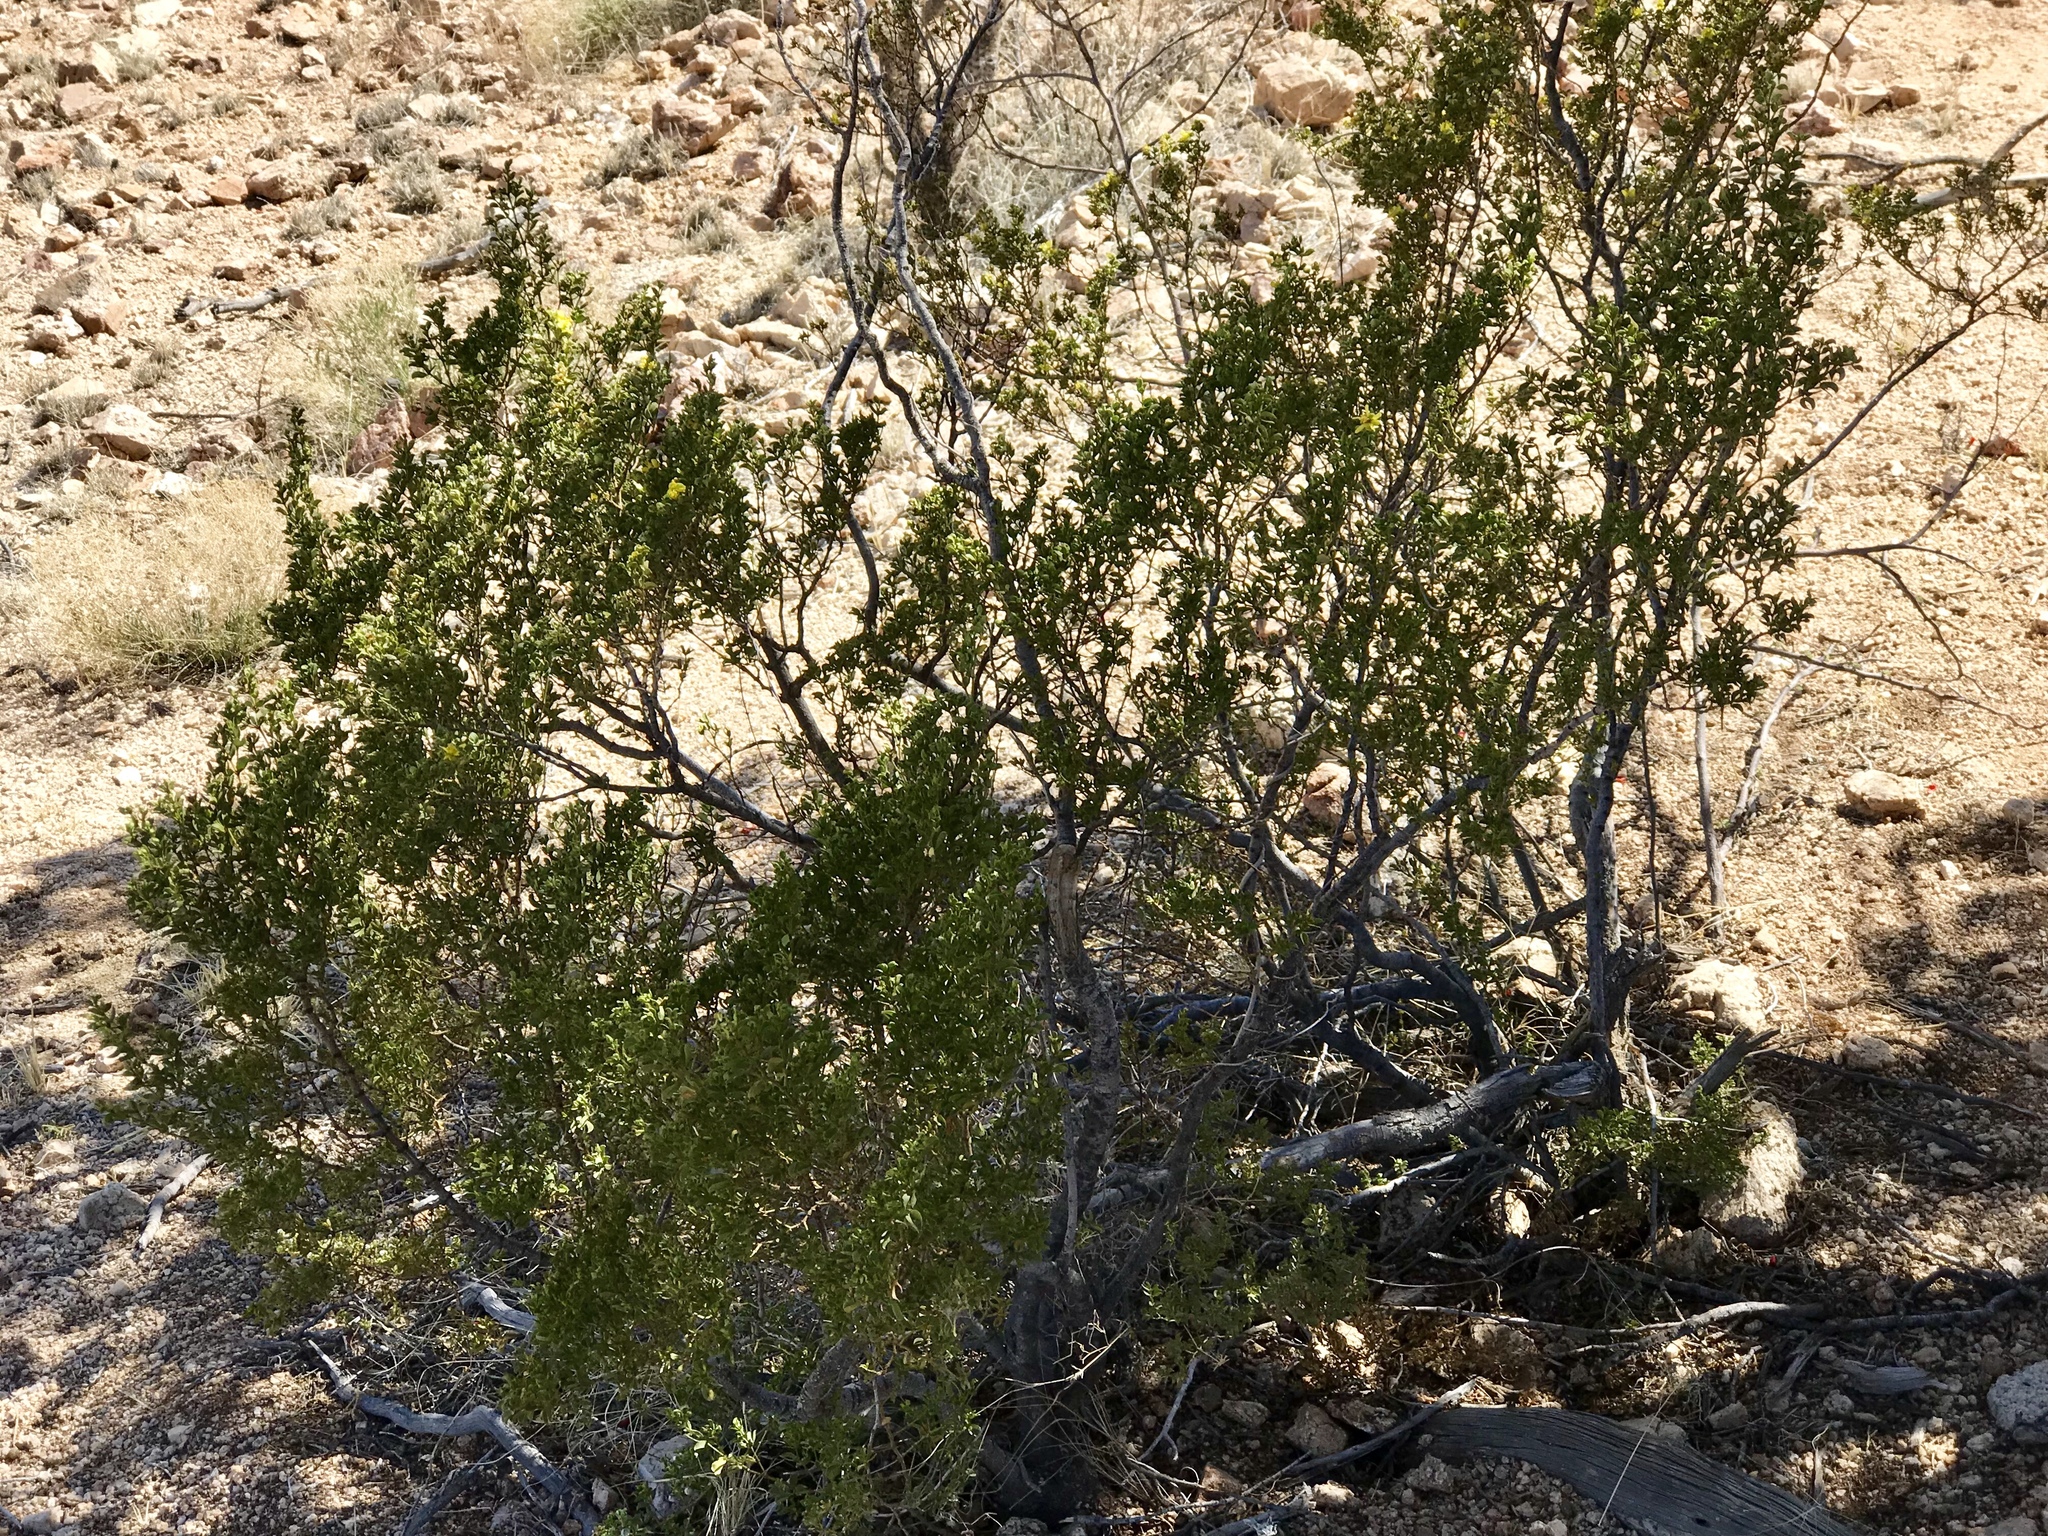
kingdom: Plantae
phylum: Tracheophyta
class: Pinopsida
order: Pinales
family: Cupressaceae
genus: Juniperus
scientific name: Juniperus monosperma
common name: One-seed juniper
